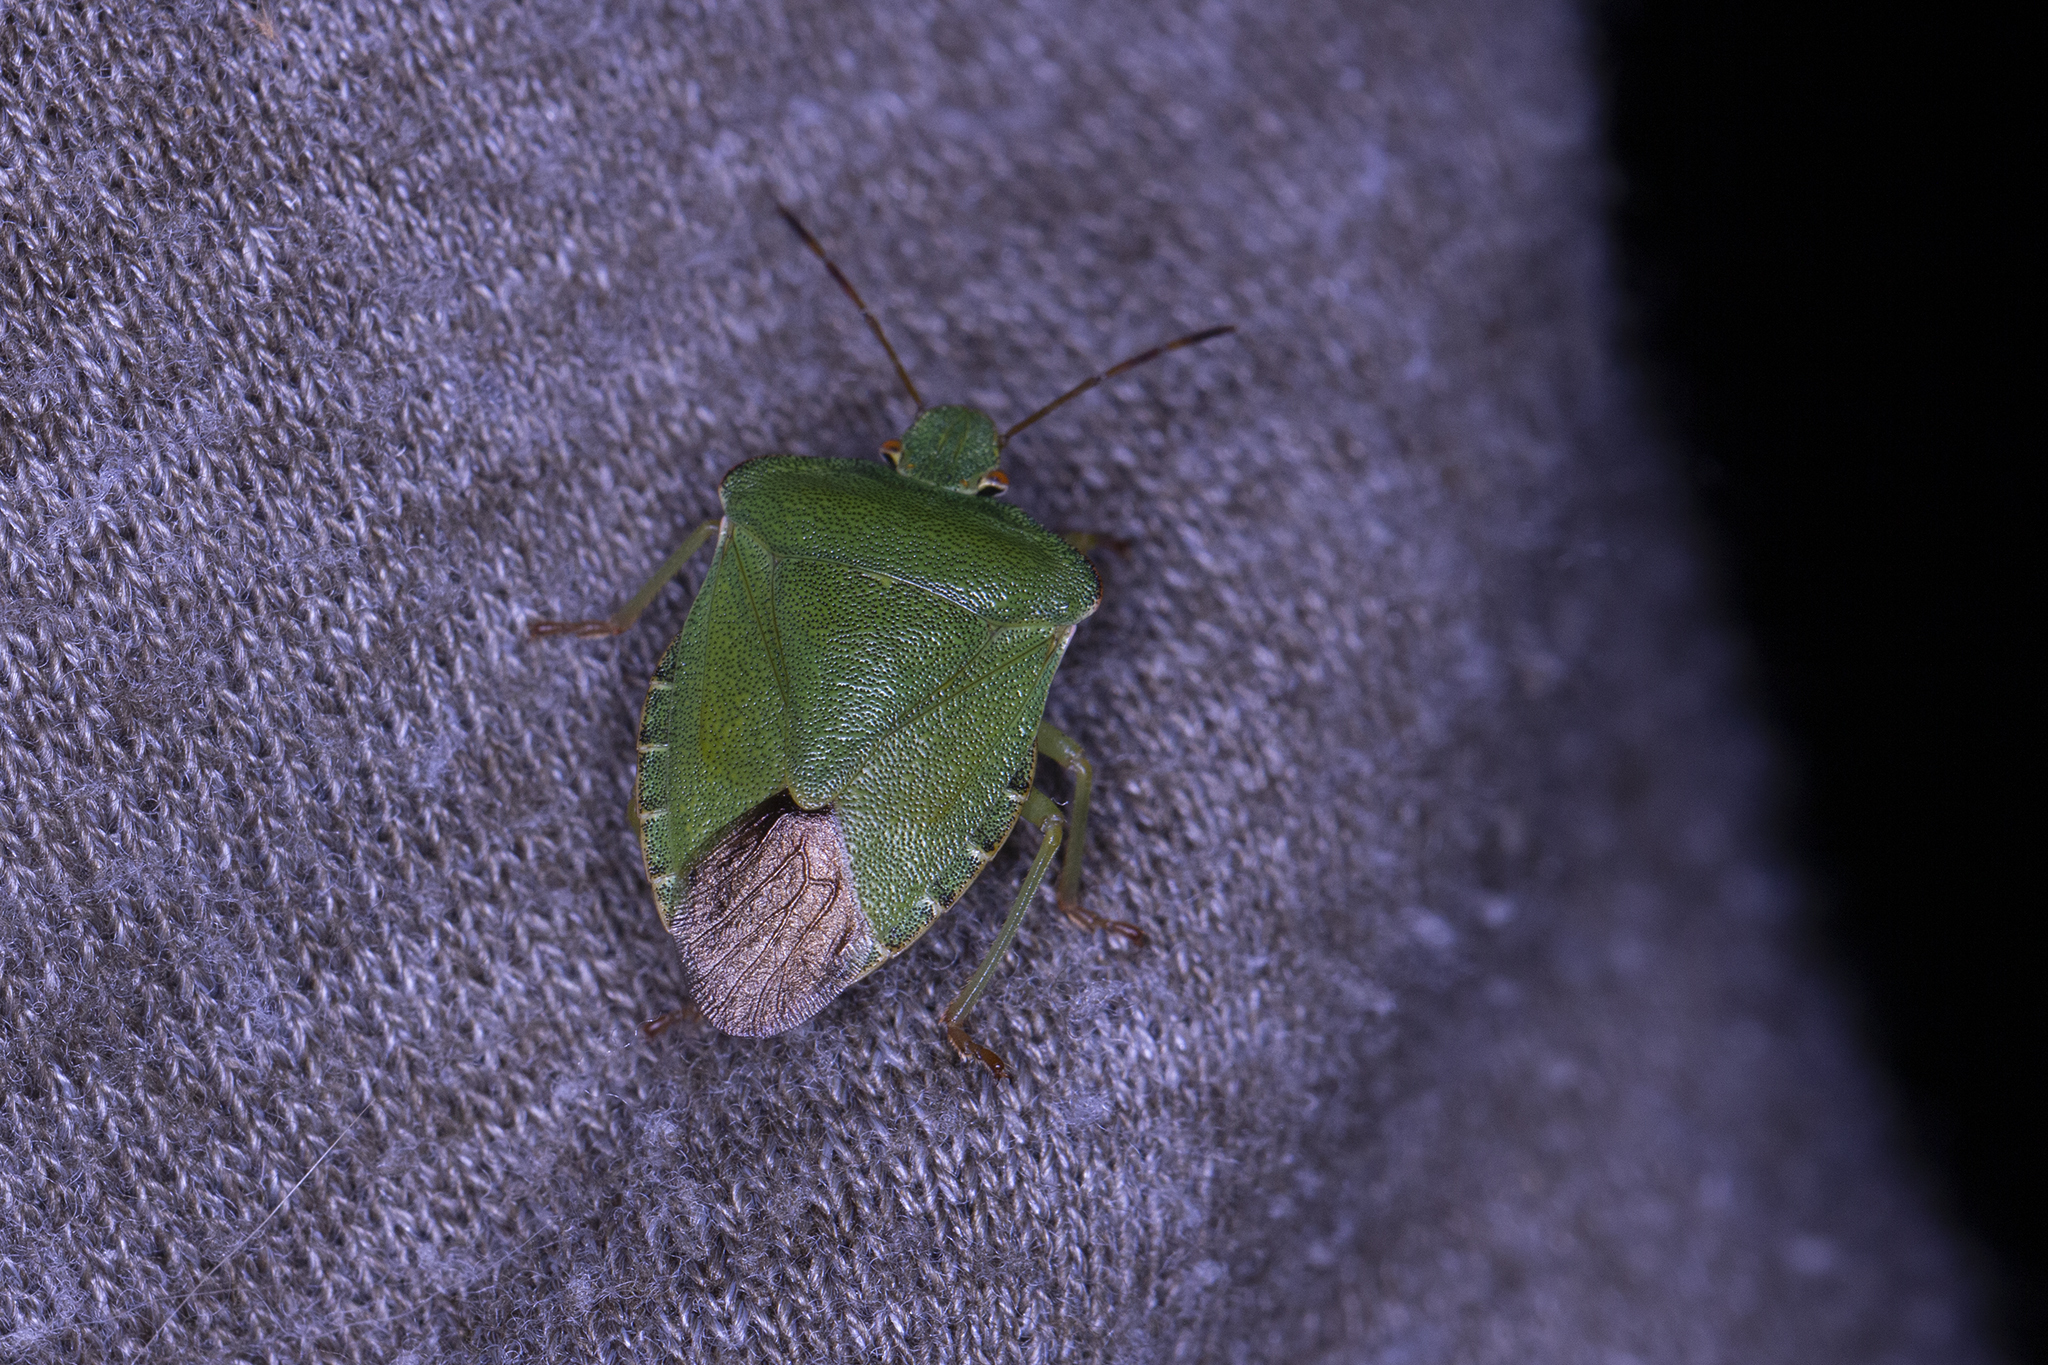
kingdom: Animalia
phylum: Arthropoda
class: Insecta
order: Hemiptera
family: Pentatomidae
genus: Palomena
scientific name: Palomena prasina
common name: Green shieldbug
